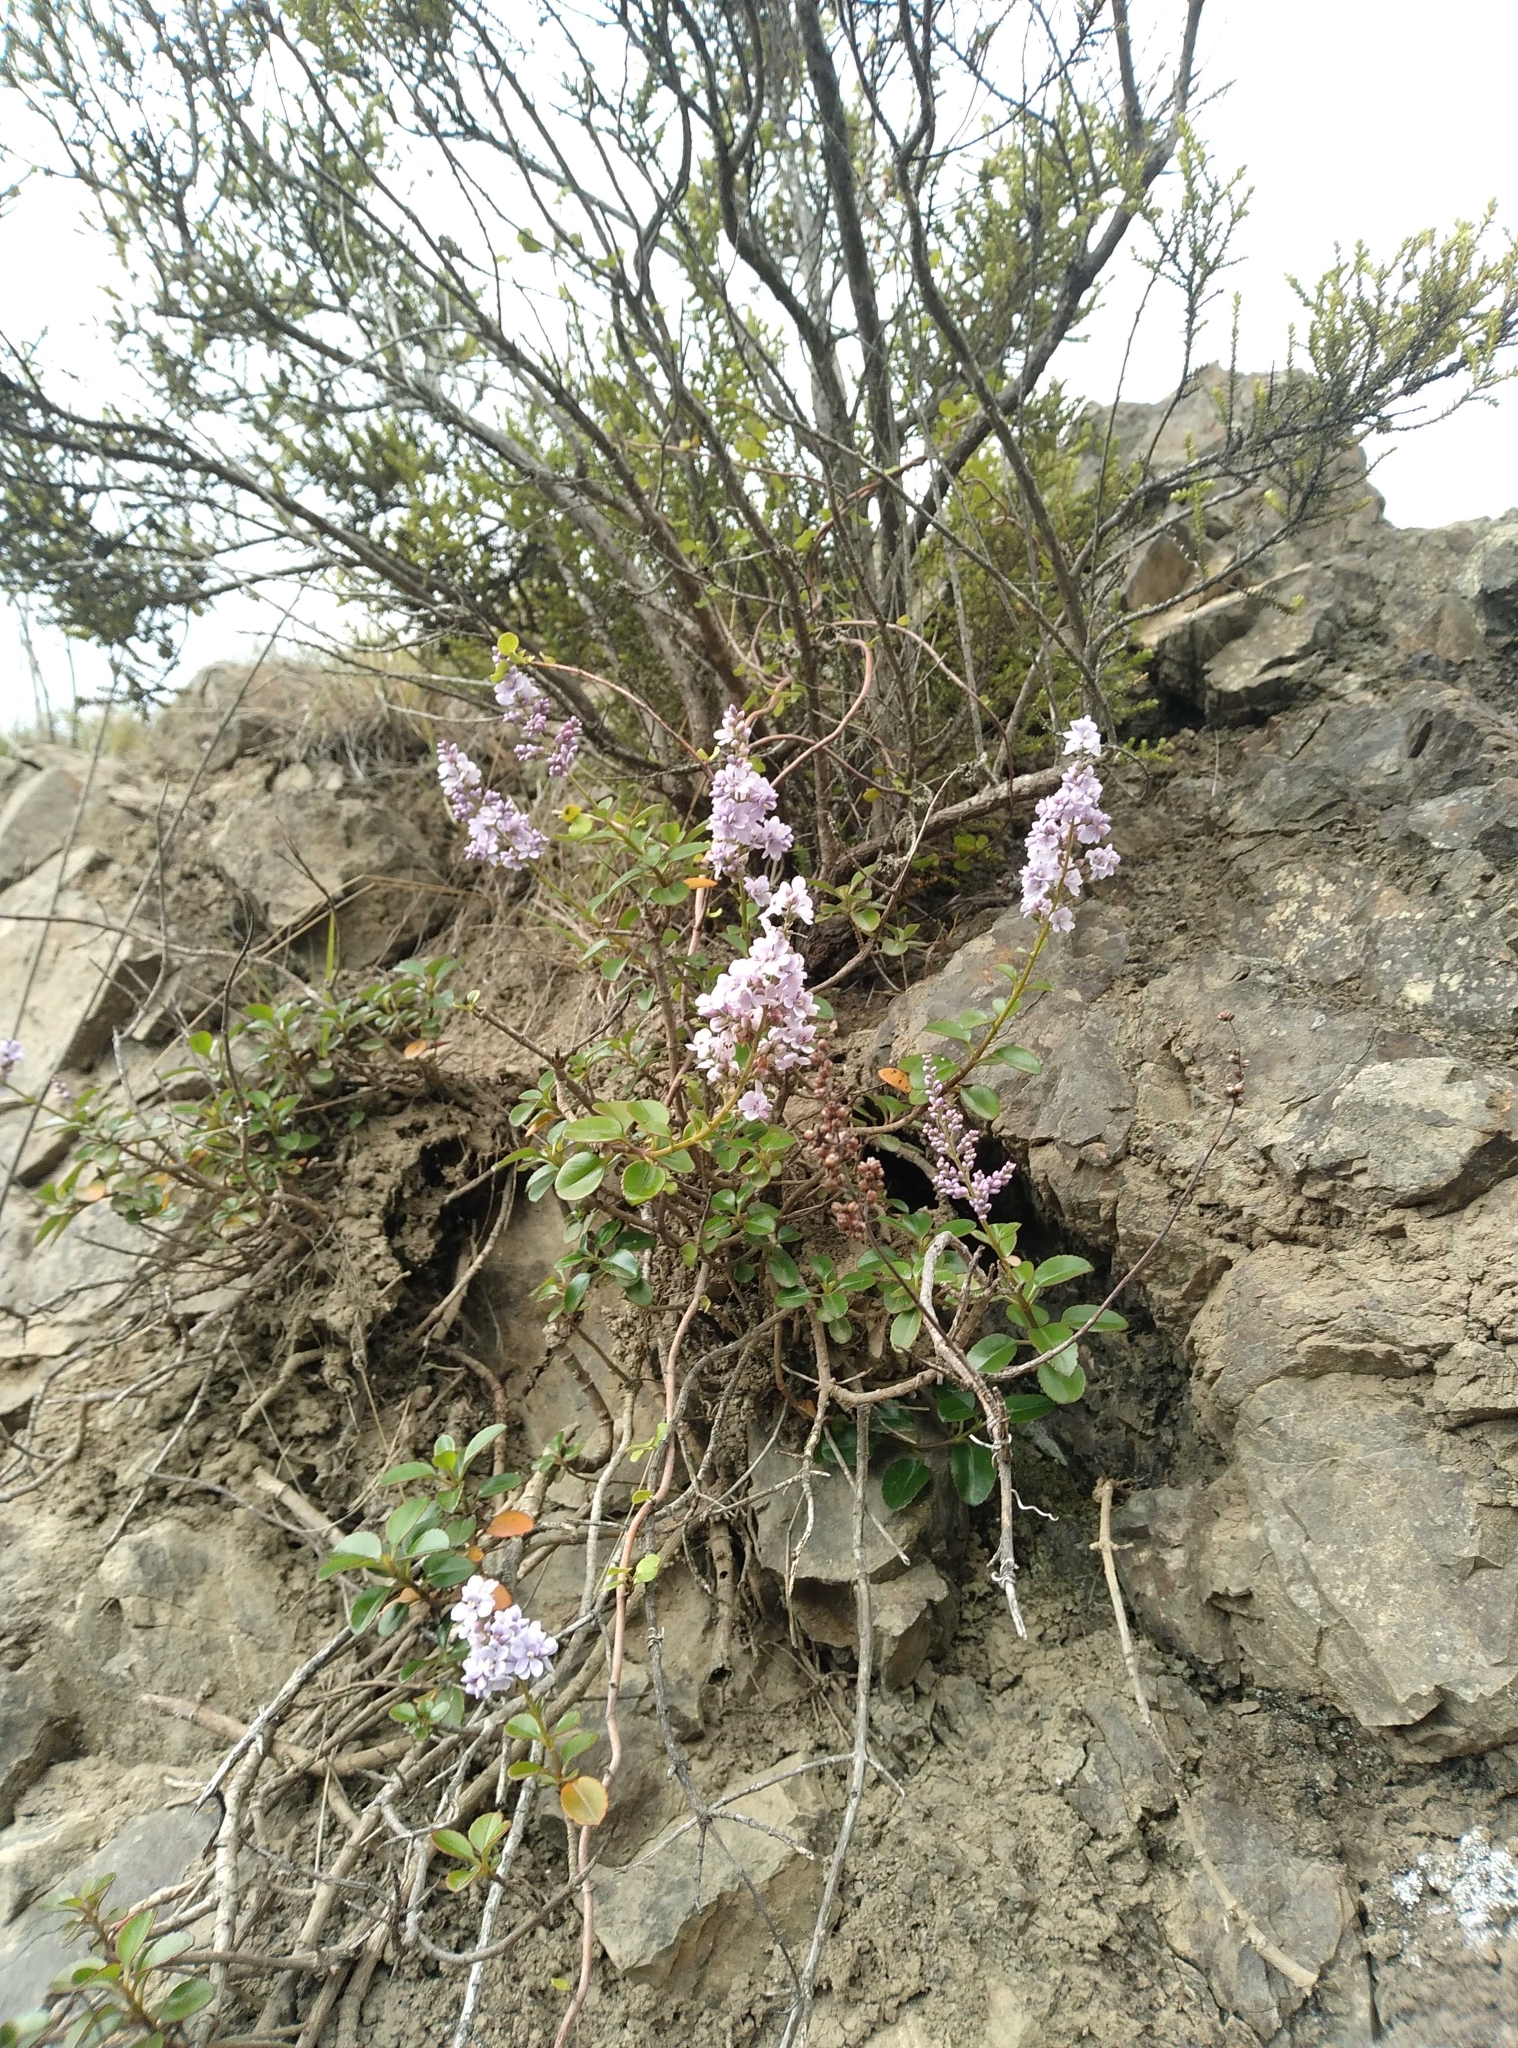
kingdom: Plantae
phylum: Tracheophyta
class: Magnoliopsida
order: Lamiales
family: Plantaginaceae
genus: Veronica
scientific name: Veronica hulkeana
